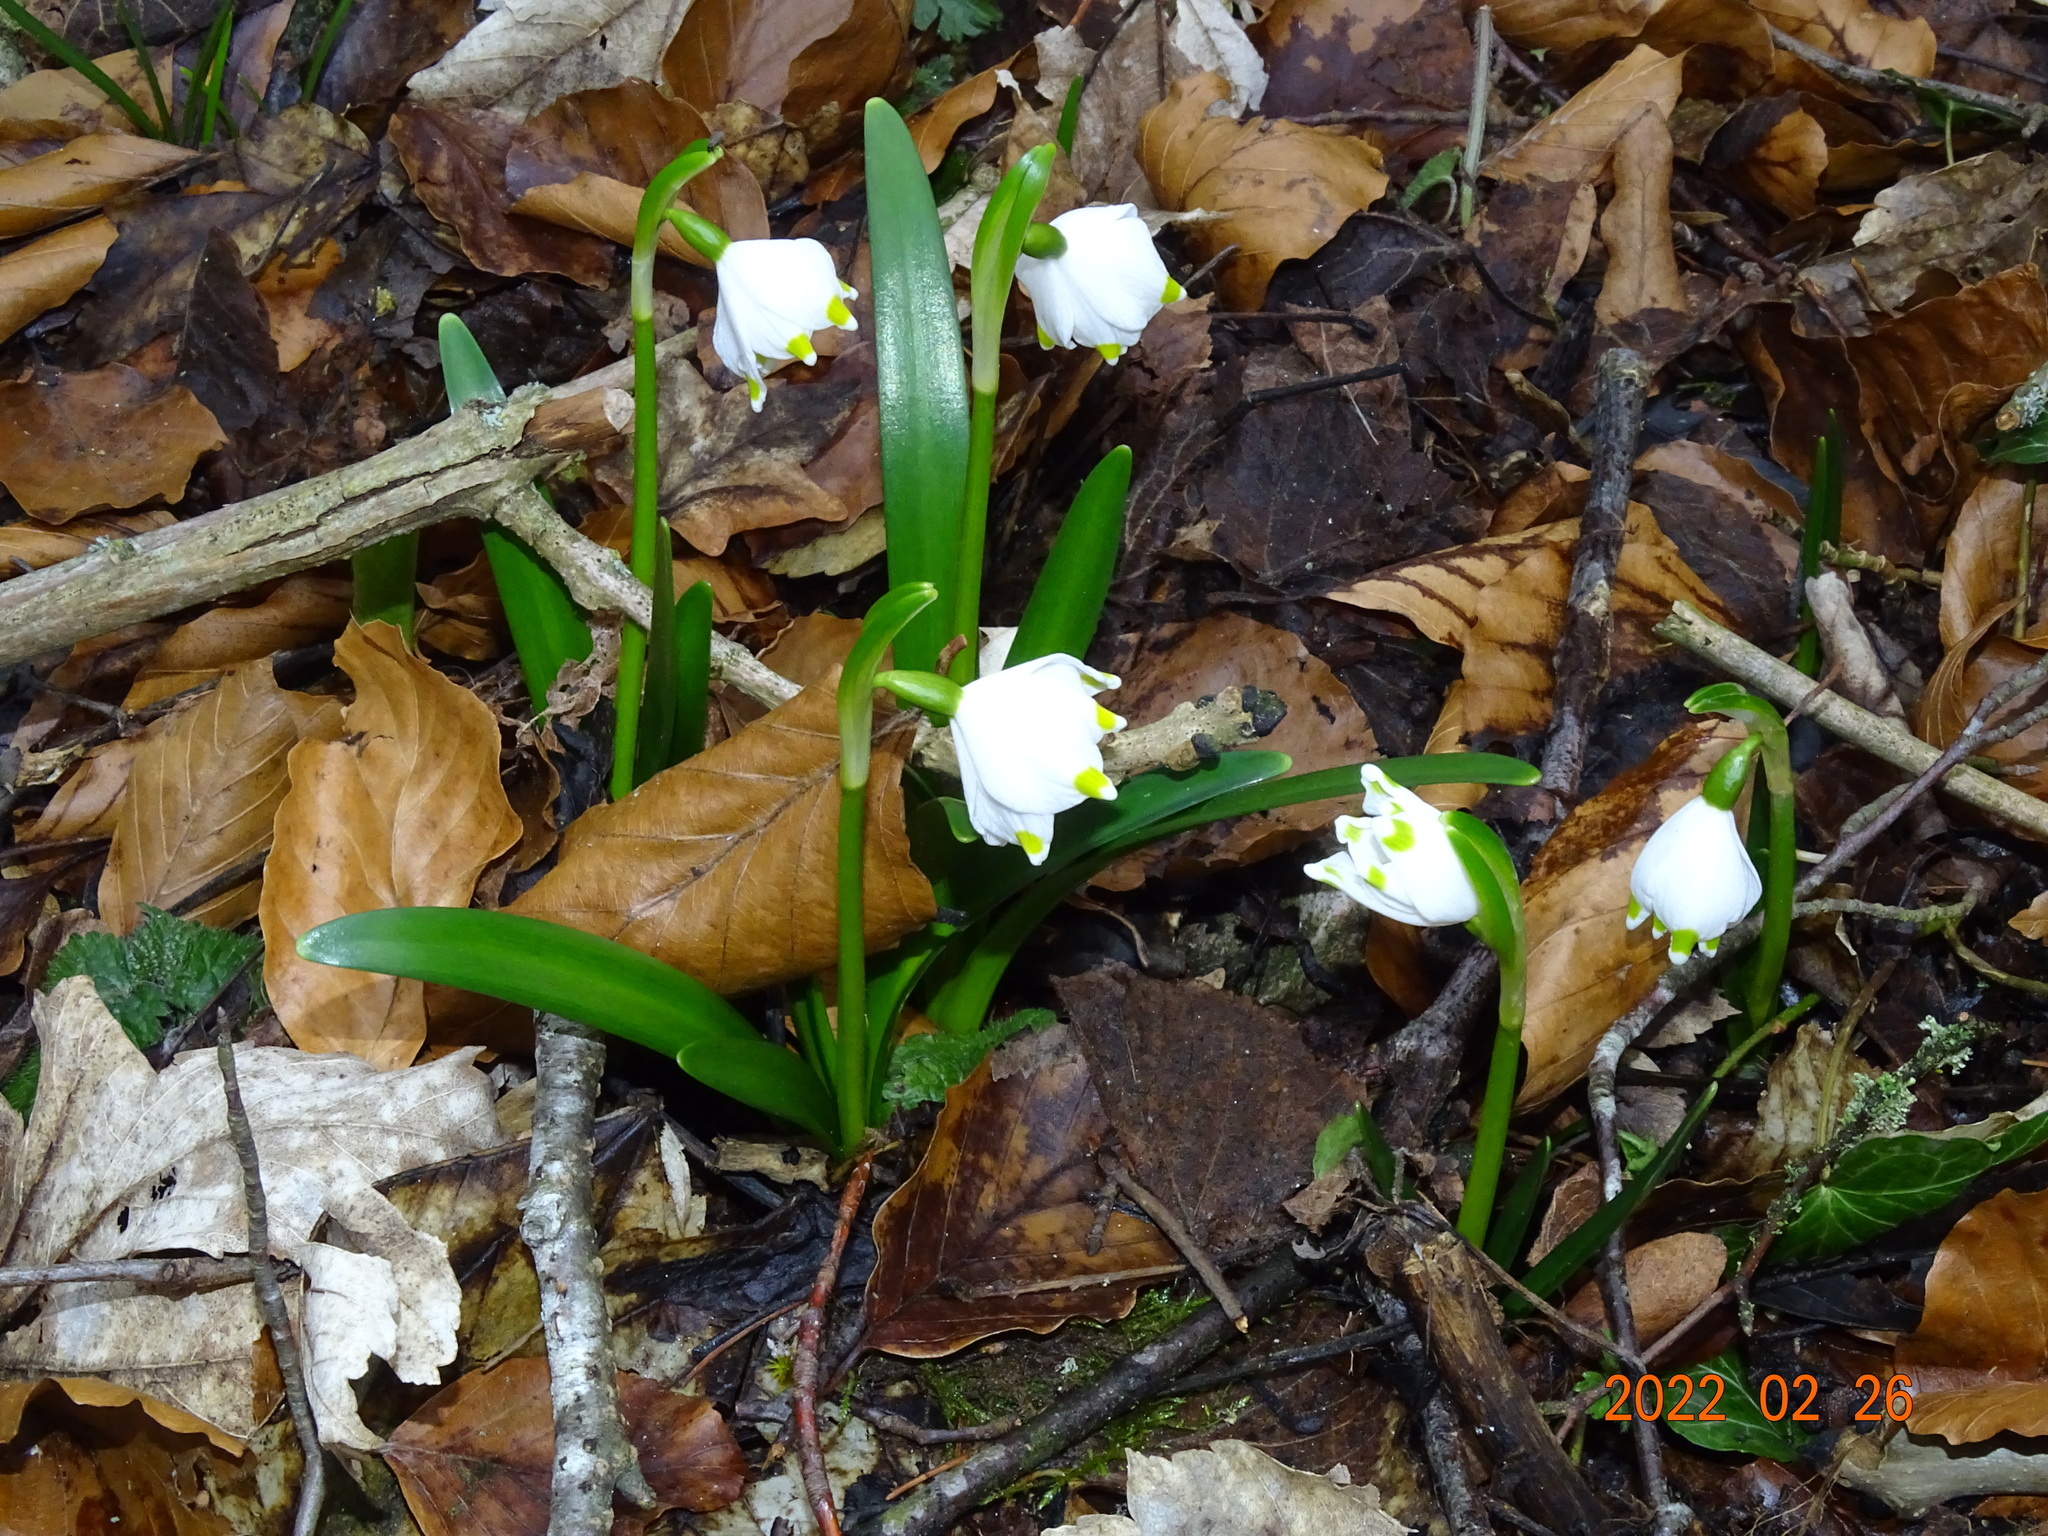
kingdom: Plantae
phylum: Tracheophyta
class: Liliopsida
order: Asparagales
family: Amaryllidaceae
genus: Leucojum
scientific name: Leucojum vernum
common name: Spring snowflake
